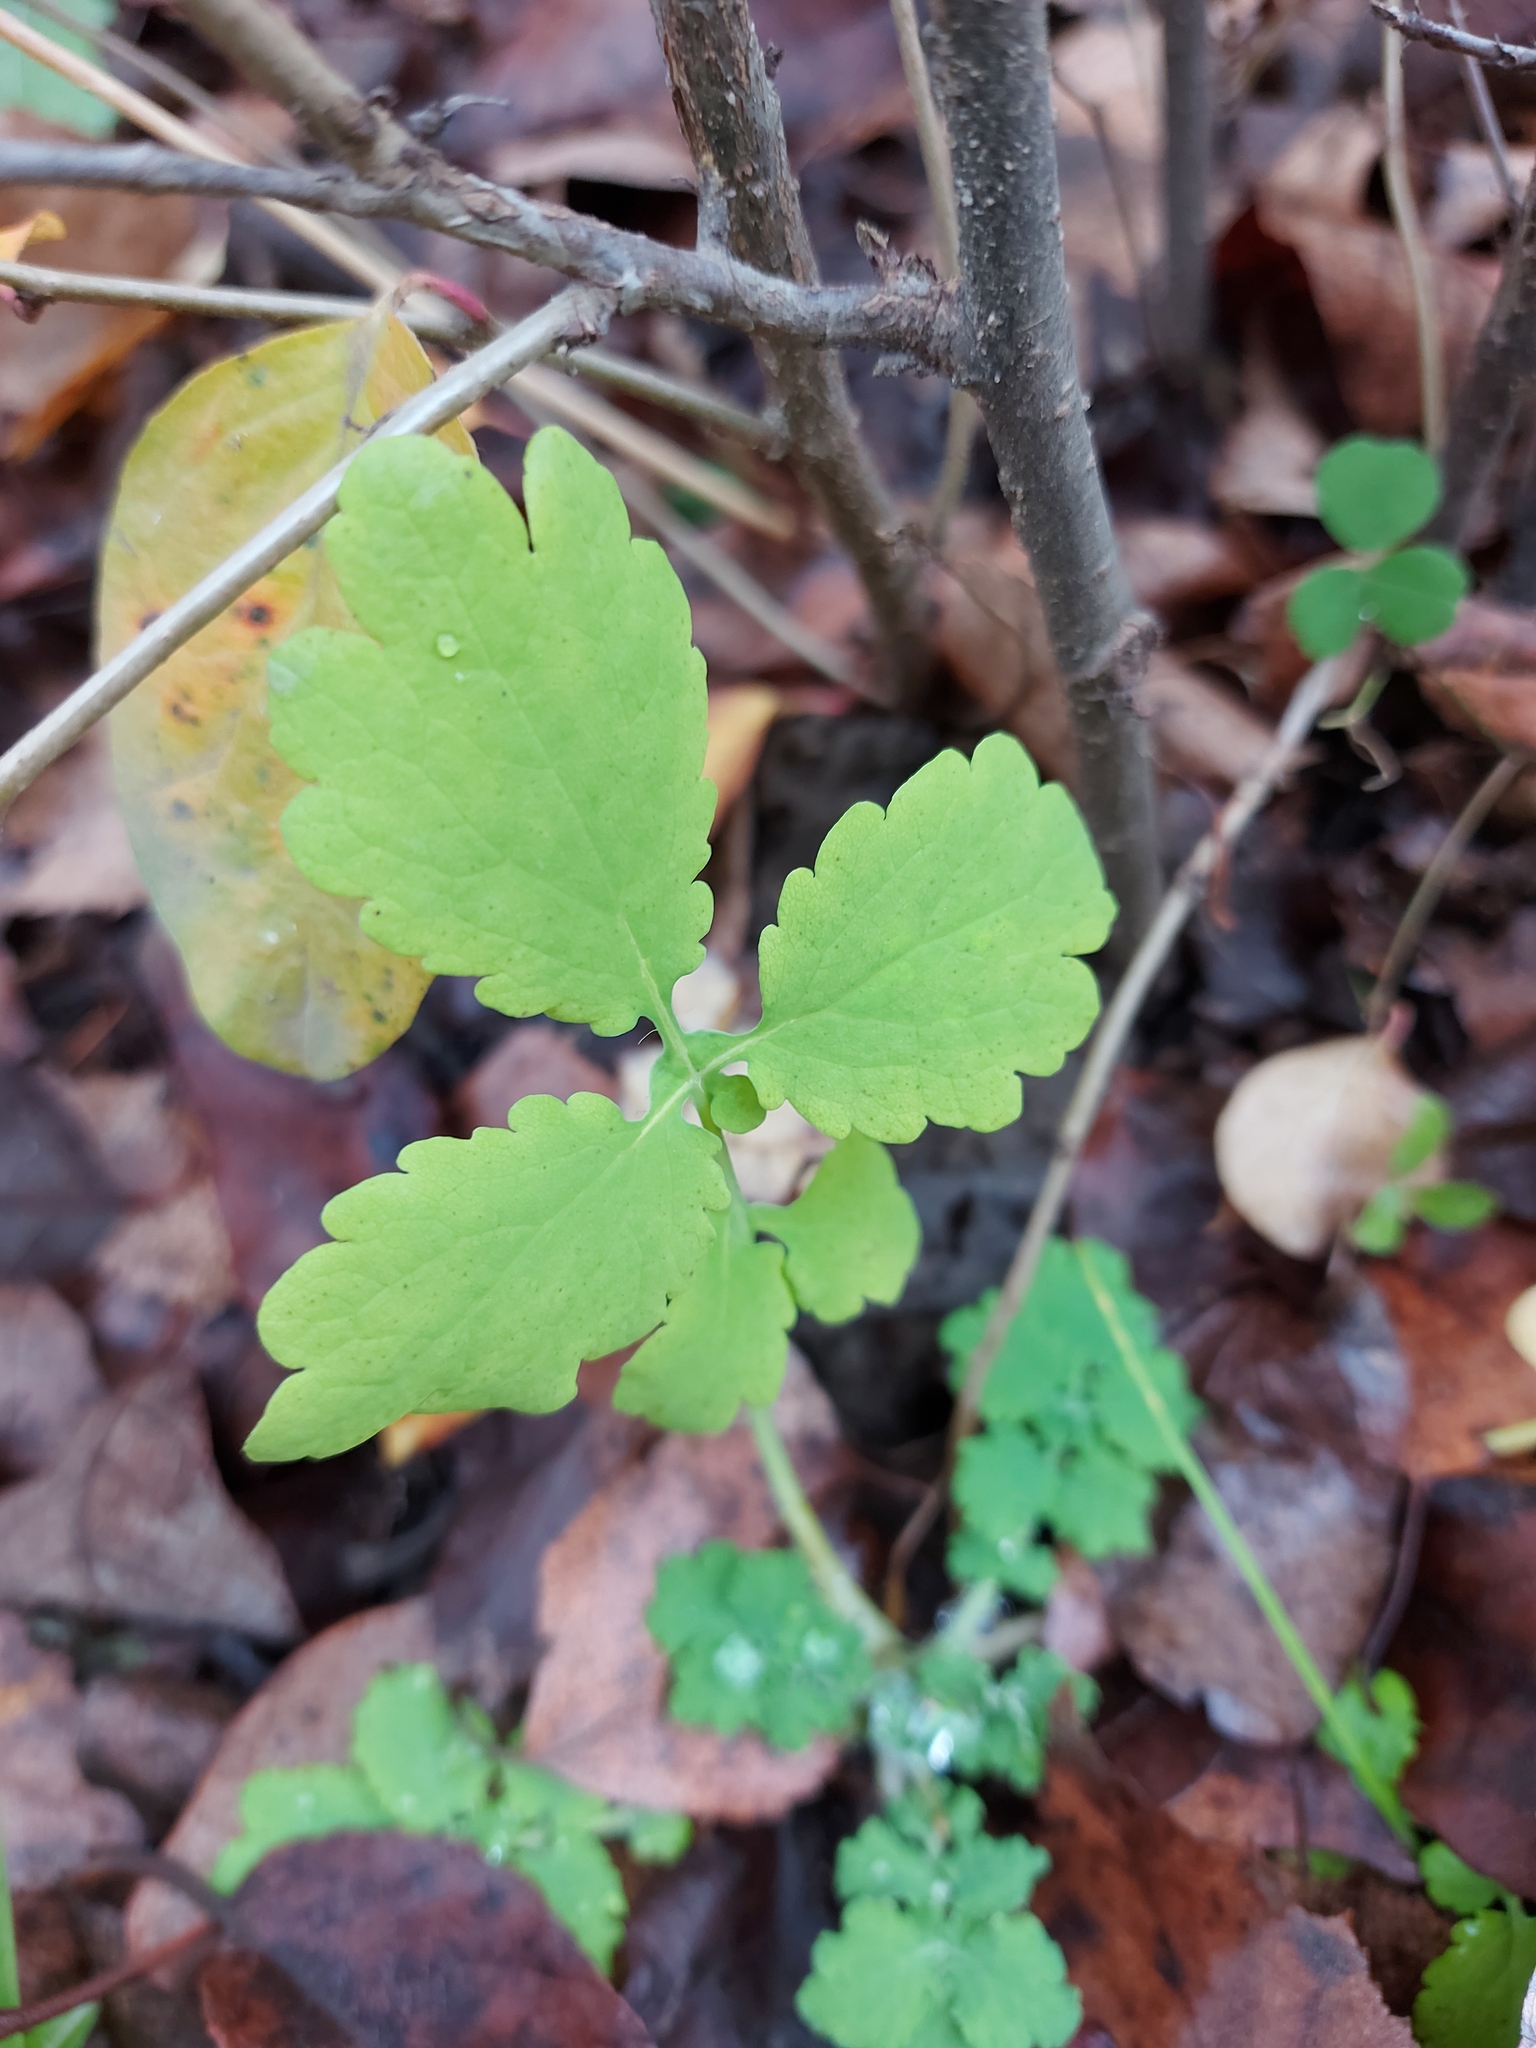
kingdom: Plantae
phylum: Tracheophyta
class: Magnoliopsida
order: Ranunculales
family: Papaveraceae
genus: Chelidonium
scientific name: Chelidonium majus
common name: Greater celandine
